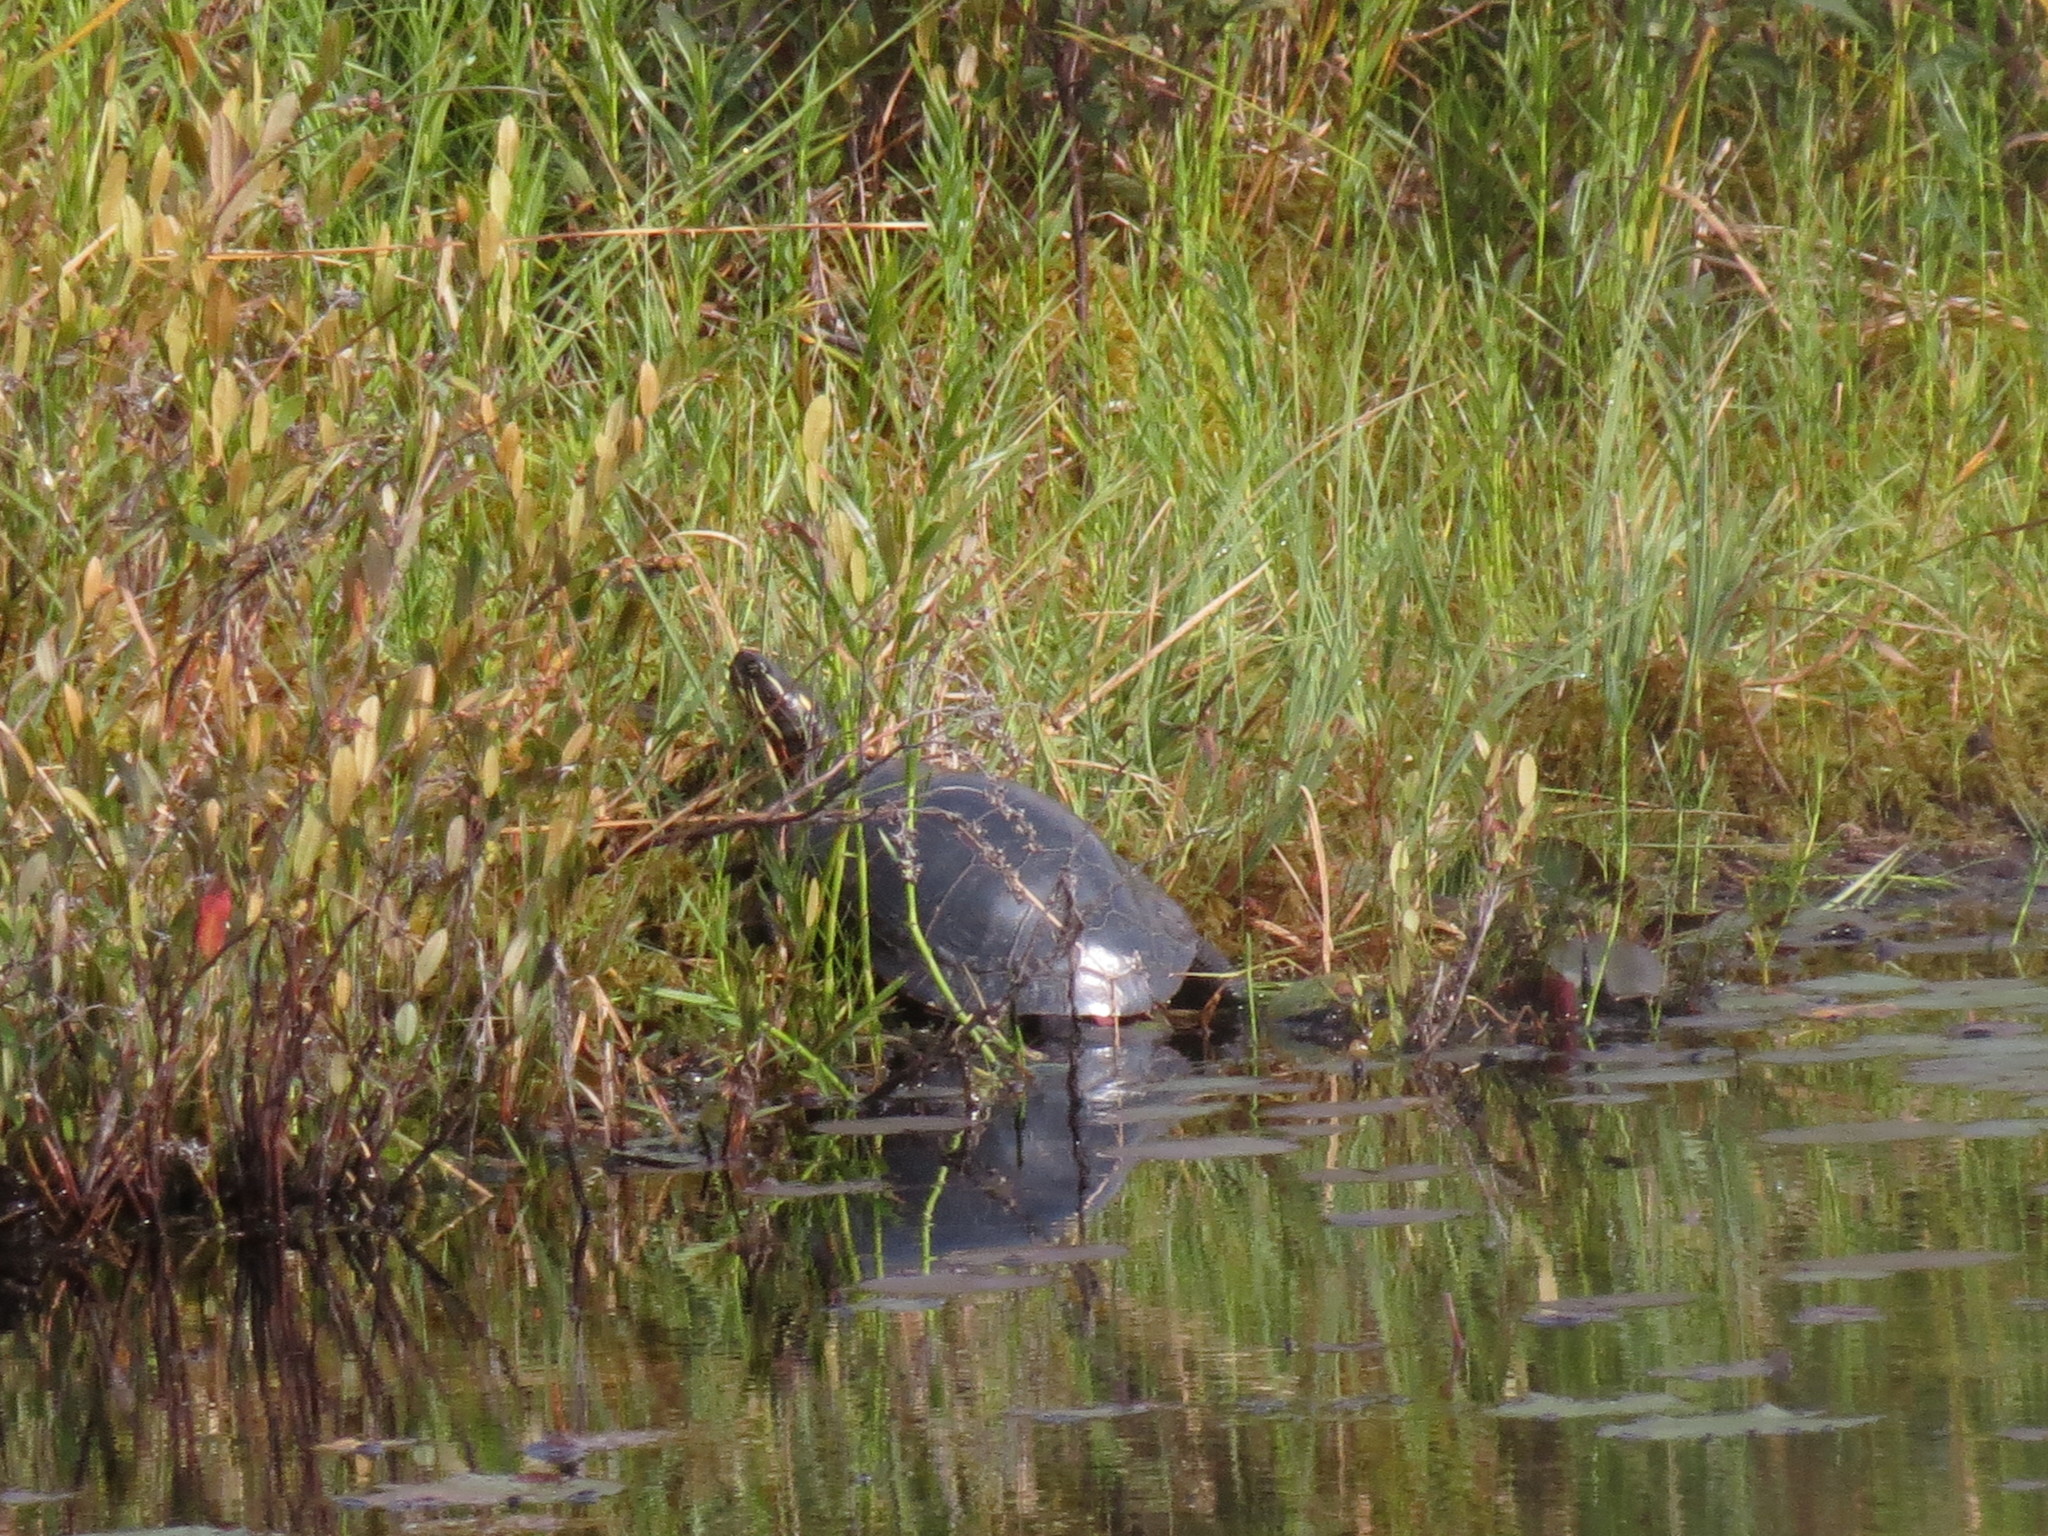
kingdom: Animalia
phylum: Chordata
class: Testudines
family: Emydidae
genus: Chrysemys
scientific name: Chrysemys picta
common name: Painted turtle
